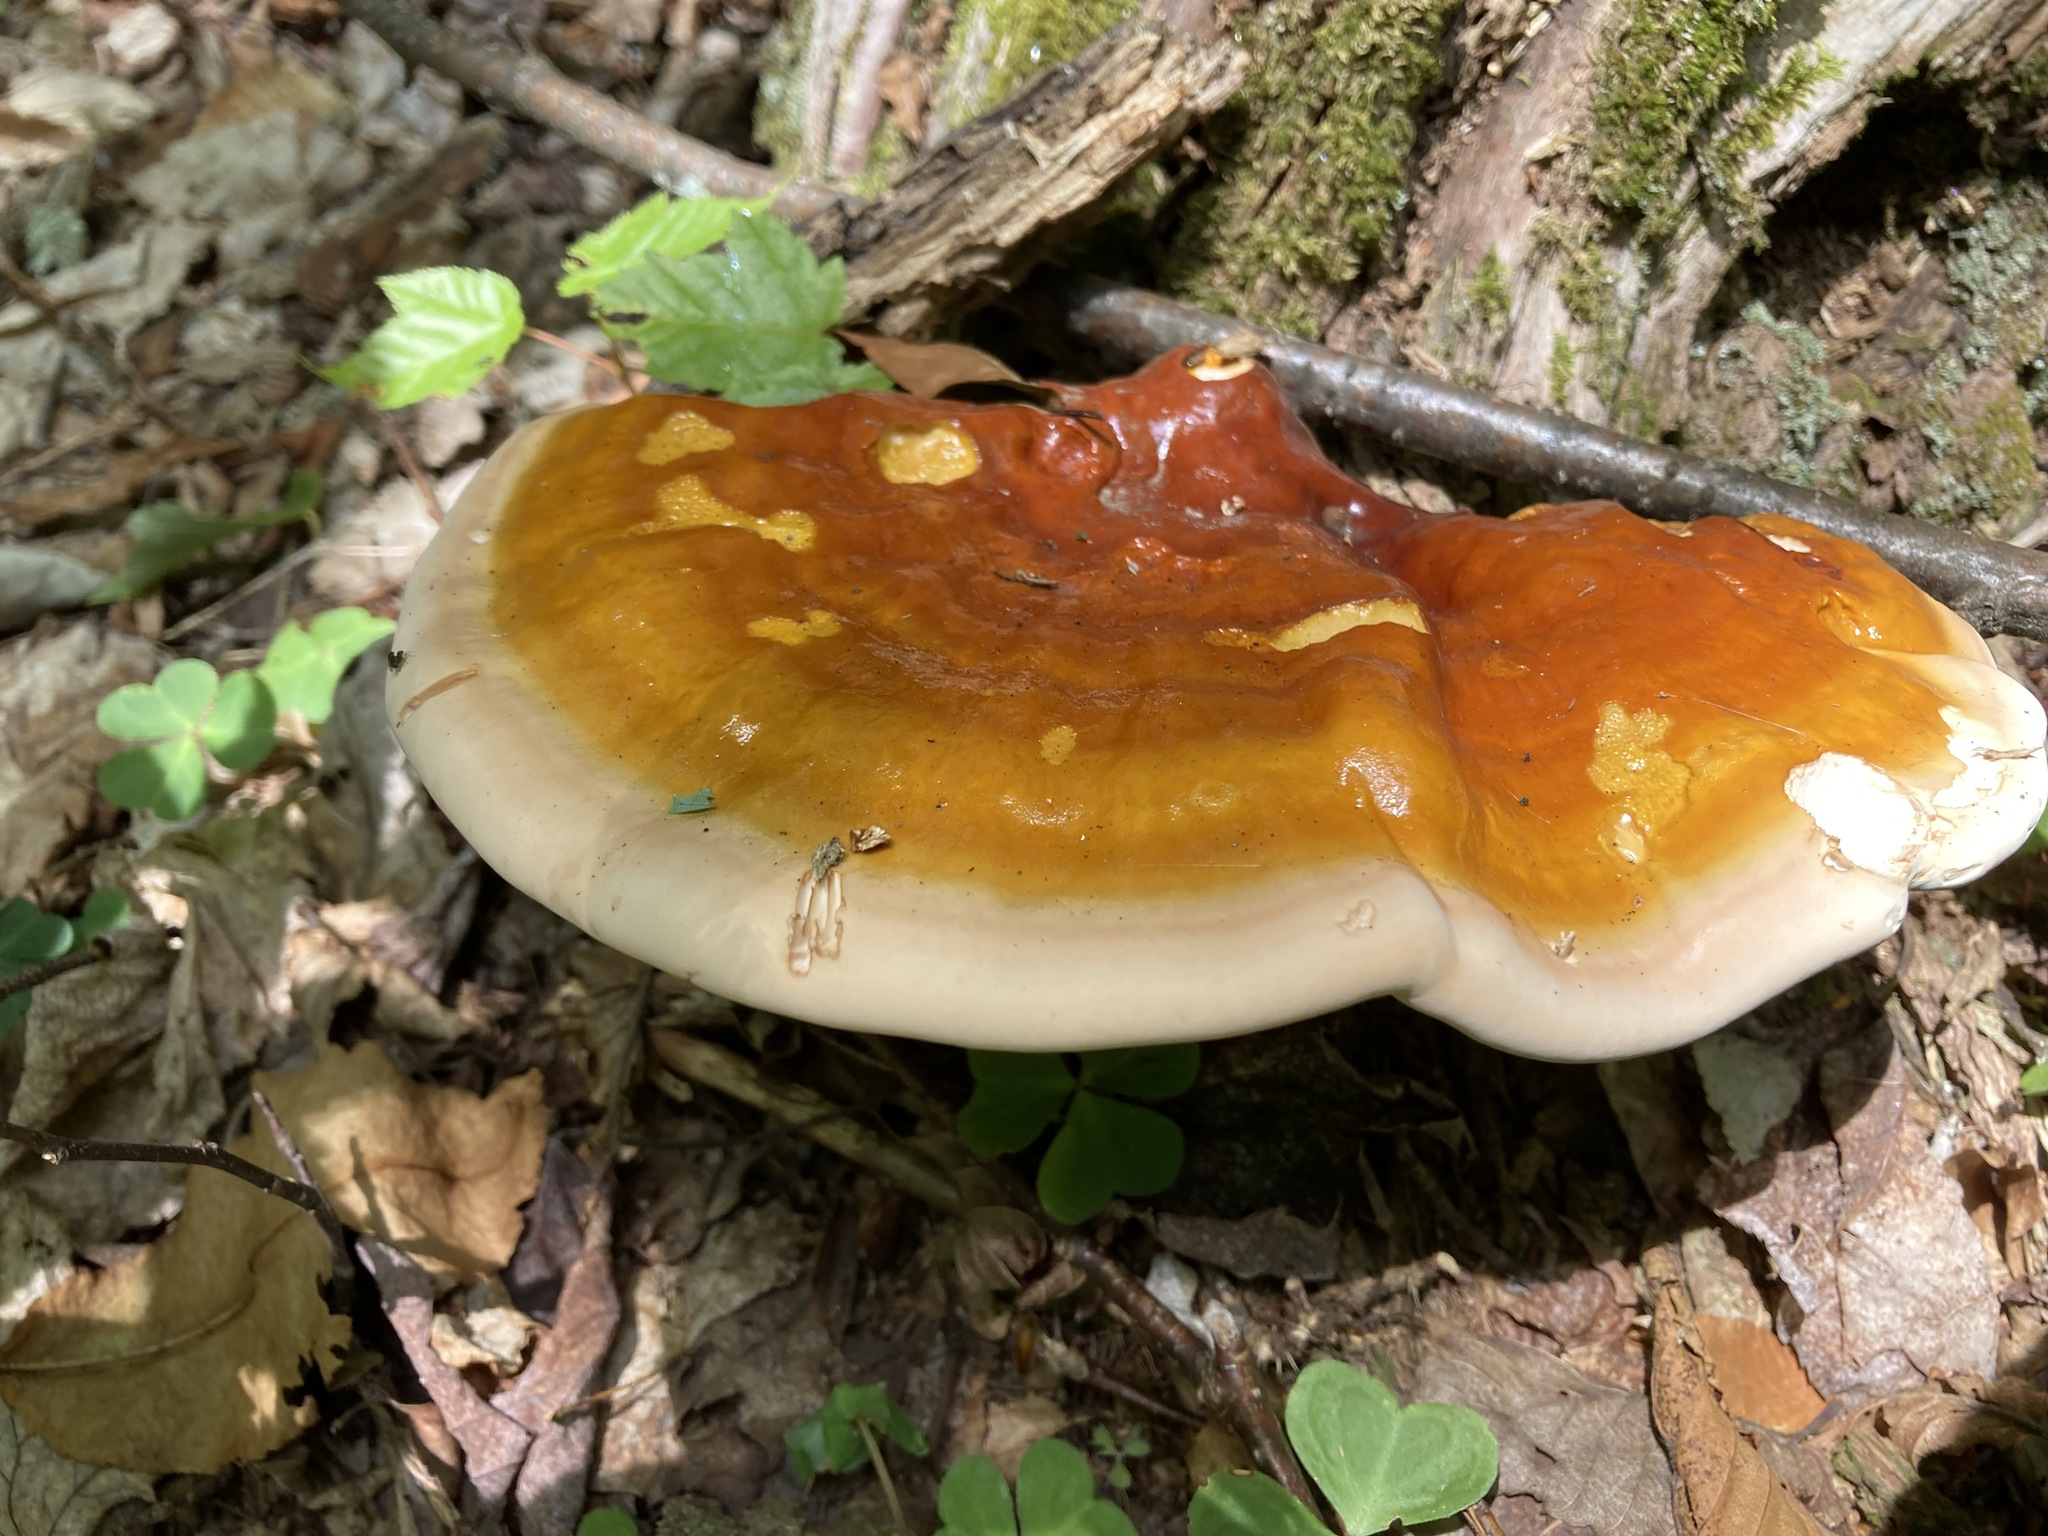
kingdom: Fungi
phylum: Basidiomycota
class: Agaricomycetes
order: Polyporales
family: Polyporaceae
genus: Ganoderma
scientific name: Ganoderma tsugae
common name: Hemlock varnish shelf
